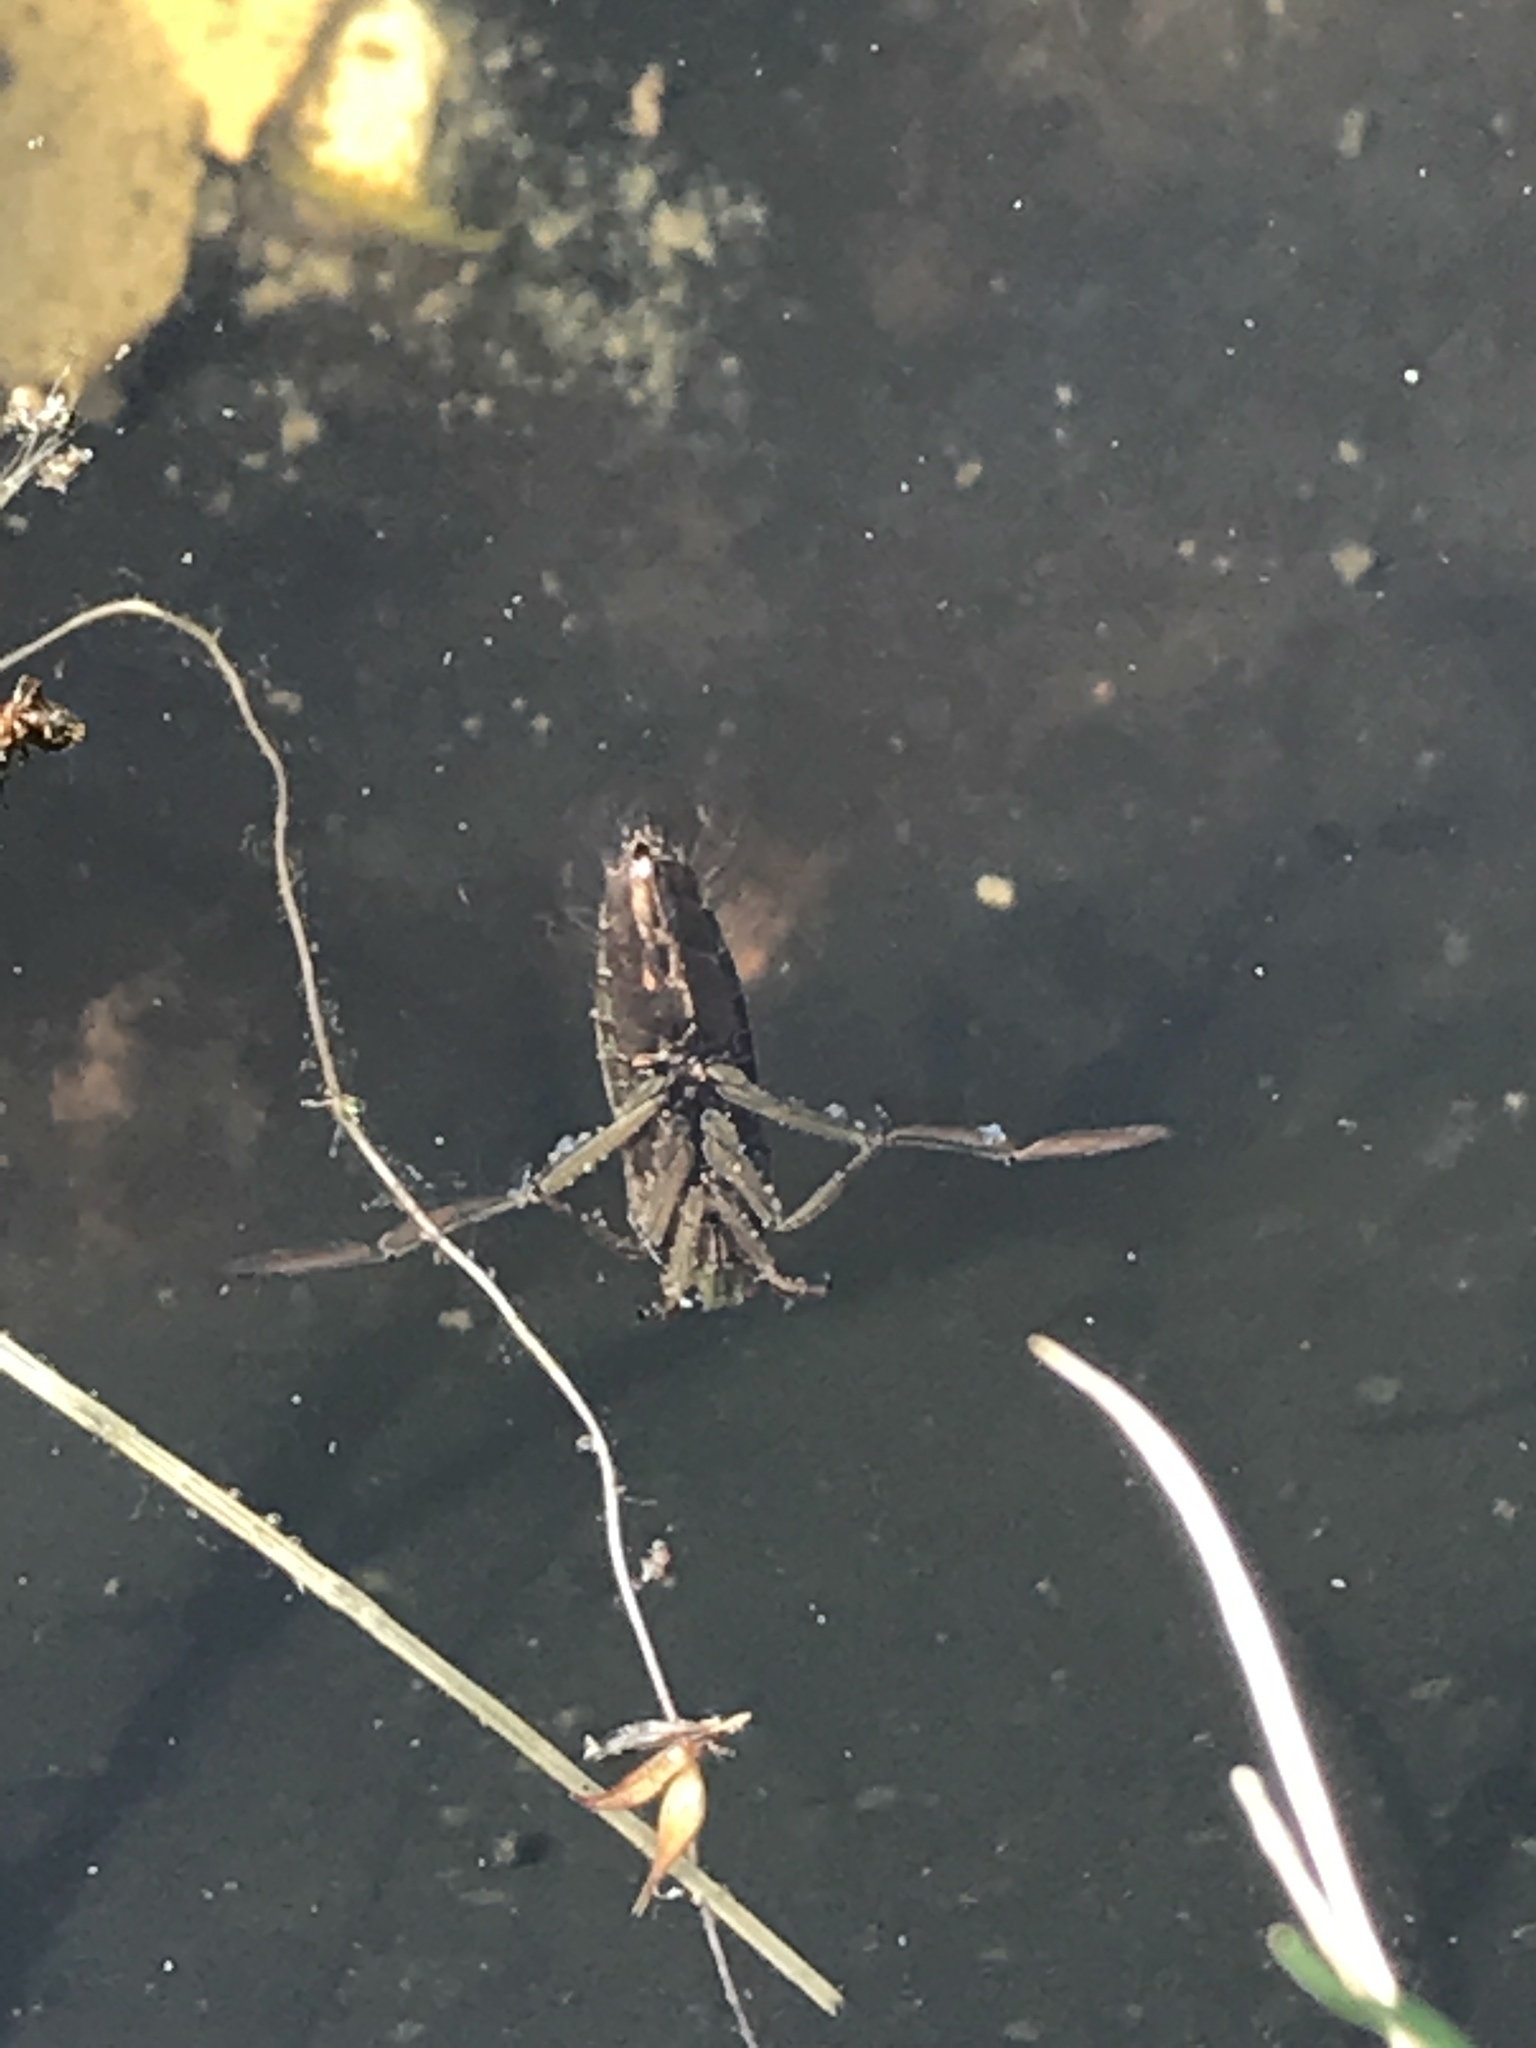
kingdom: Animalia
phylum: Arthropoda
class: Insecta
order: Hemiptera
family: Notonectidae
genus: Notonecta
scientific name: Notonecta
